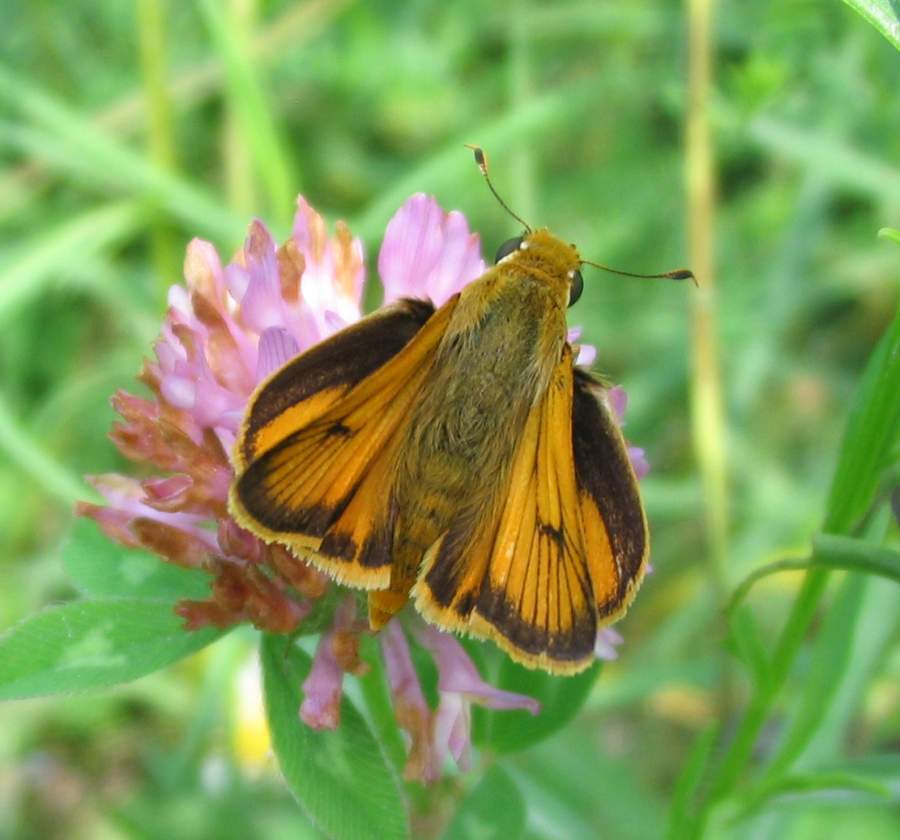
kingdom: Animalia
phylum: Arthropoda
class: Insecta
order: Lepidoptera
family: Hesperiidae
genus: Atrytone
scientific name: Atrytone delaware
